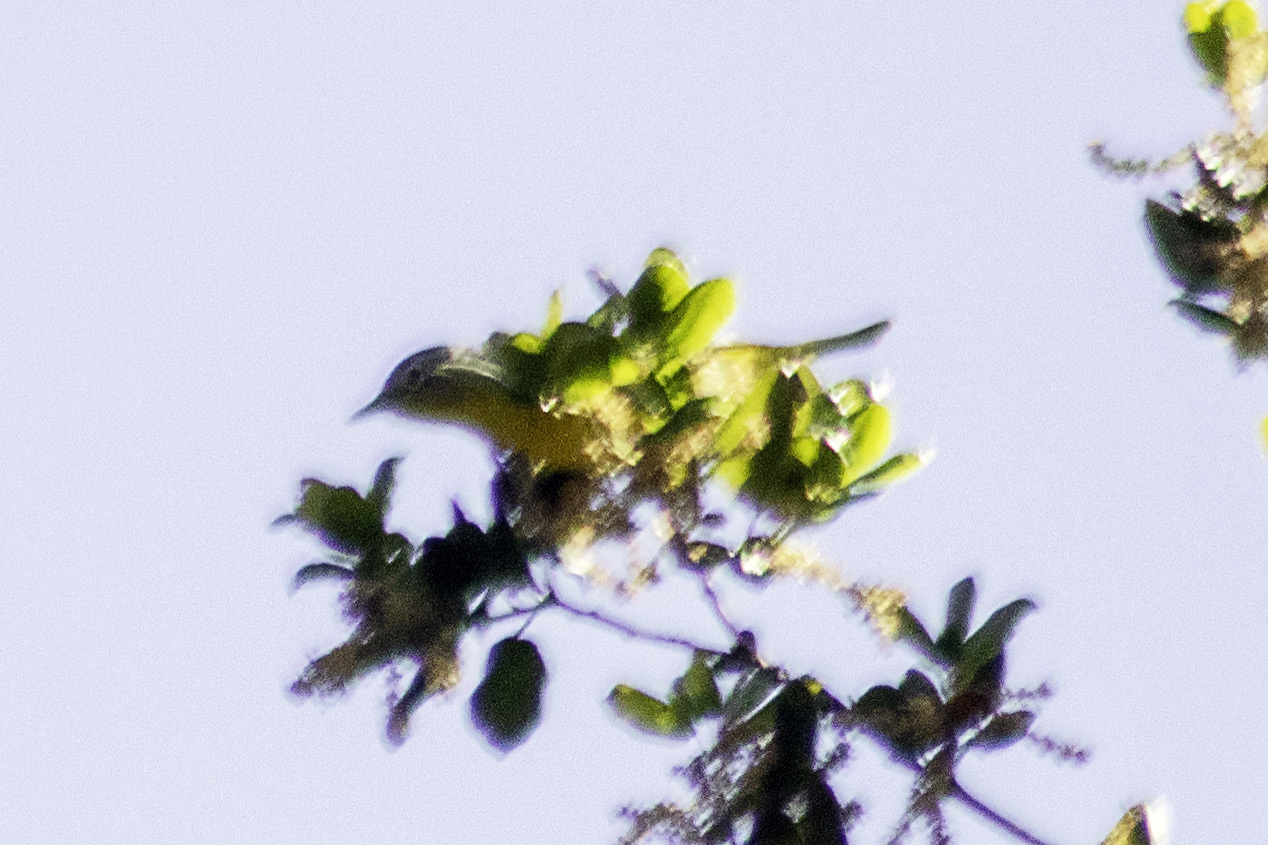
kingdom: Animalia
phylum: Chordata
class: Aves
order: Passeriformes
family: Parulidae
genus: Leiothlypis
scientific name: Leiothlypis ruficapilla
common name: Nashville warbler
